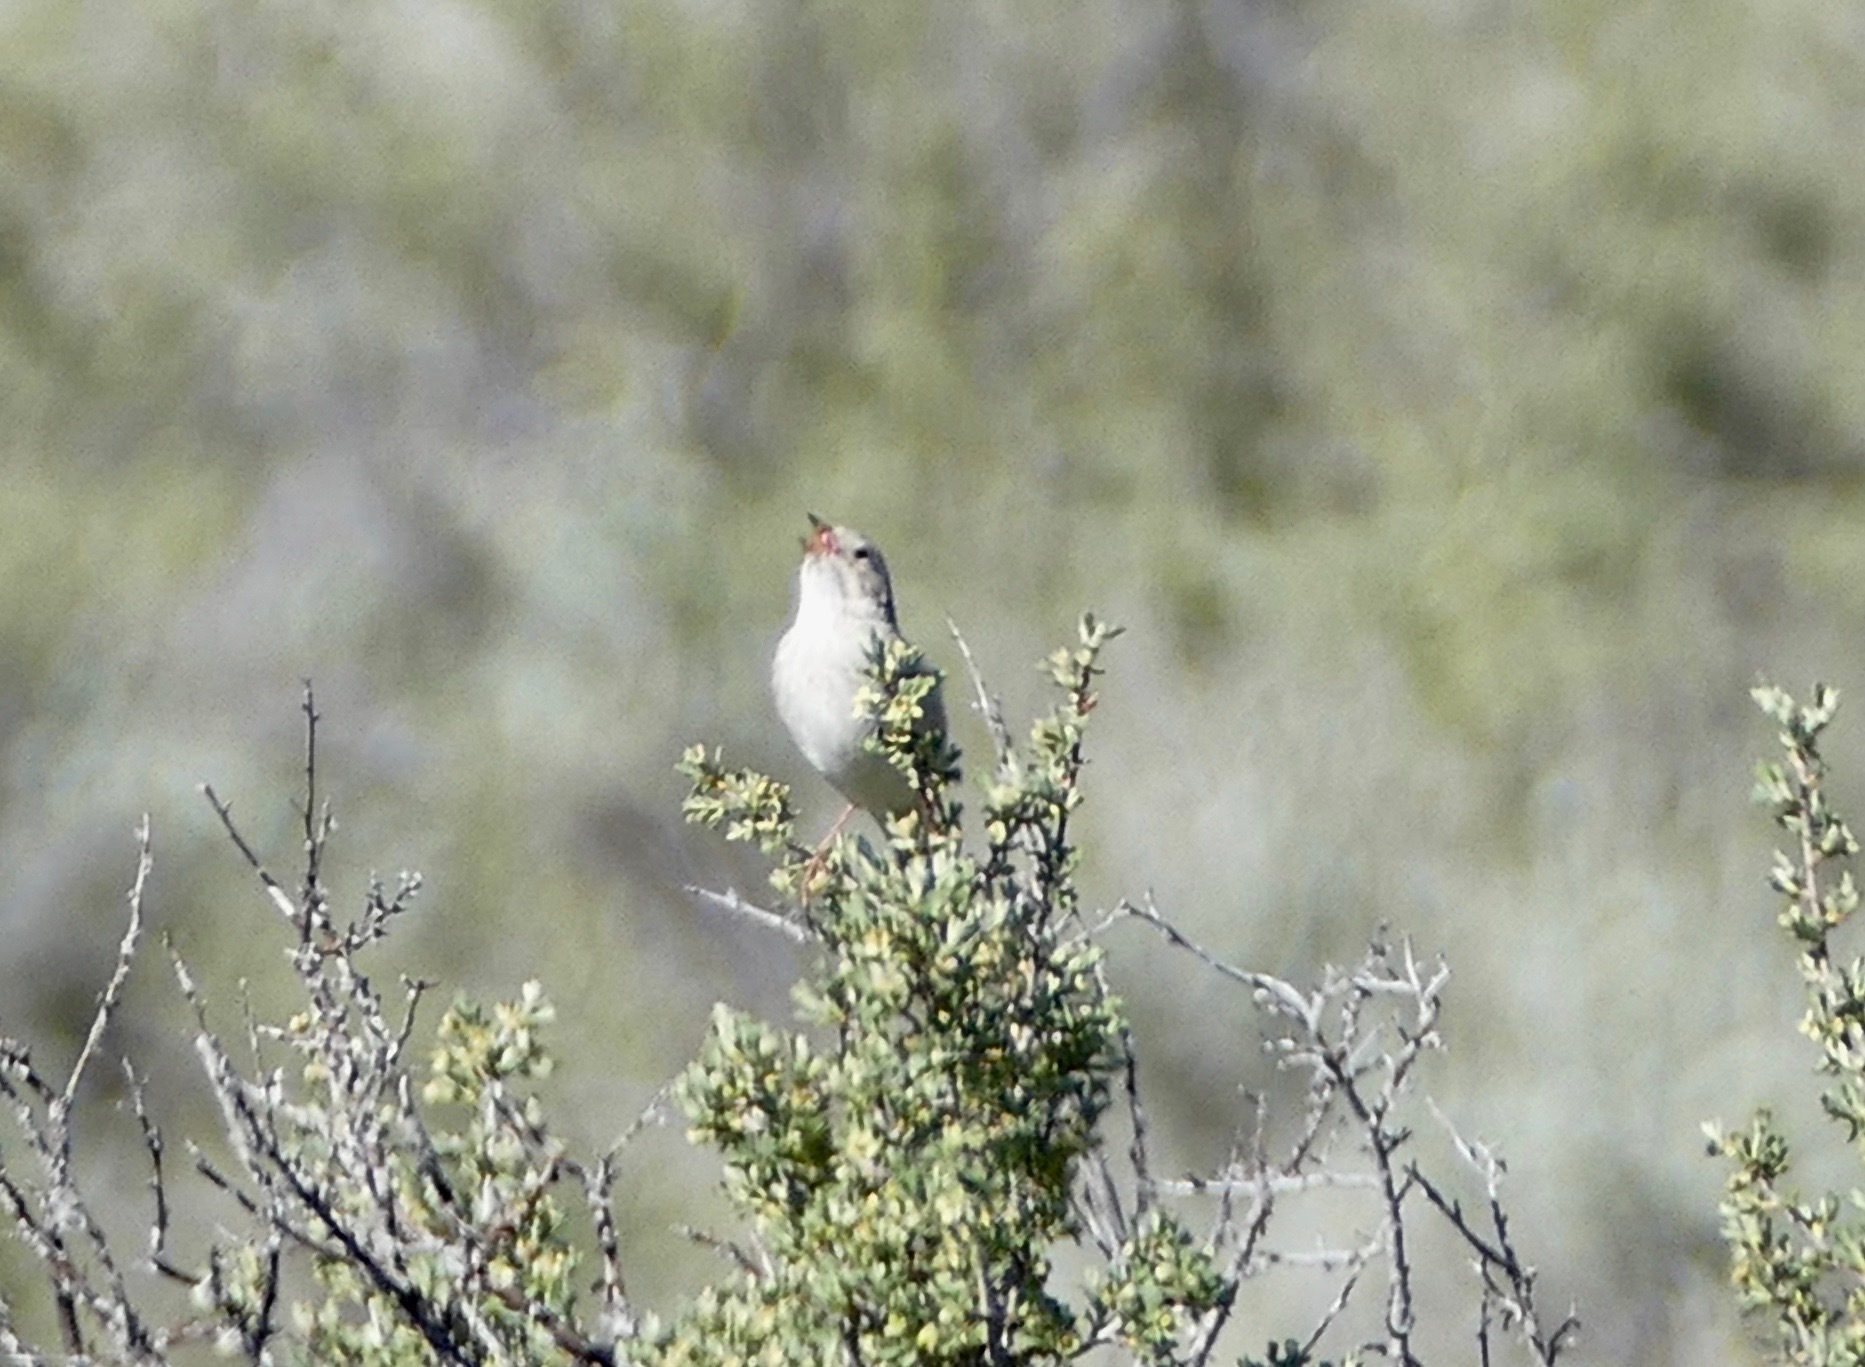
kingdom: Animalia
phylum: Chordata
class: Aves
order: Passeriformes
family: Passerellidae
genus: Spizella
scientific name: Spizella breweri
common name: Brewer's sparrow
